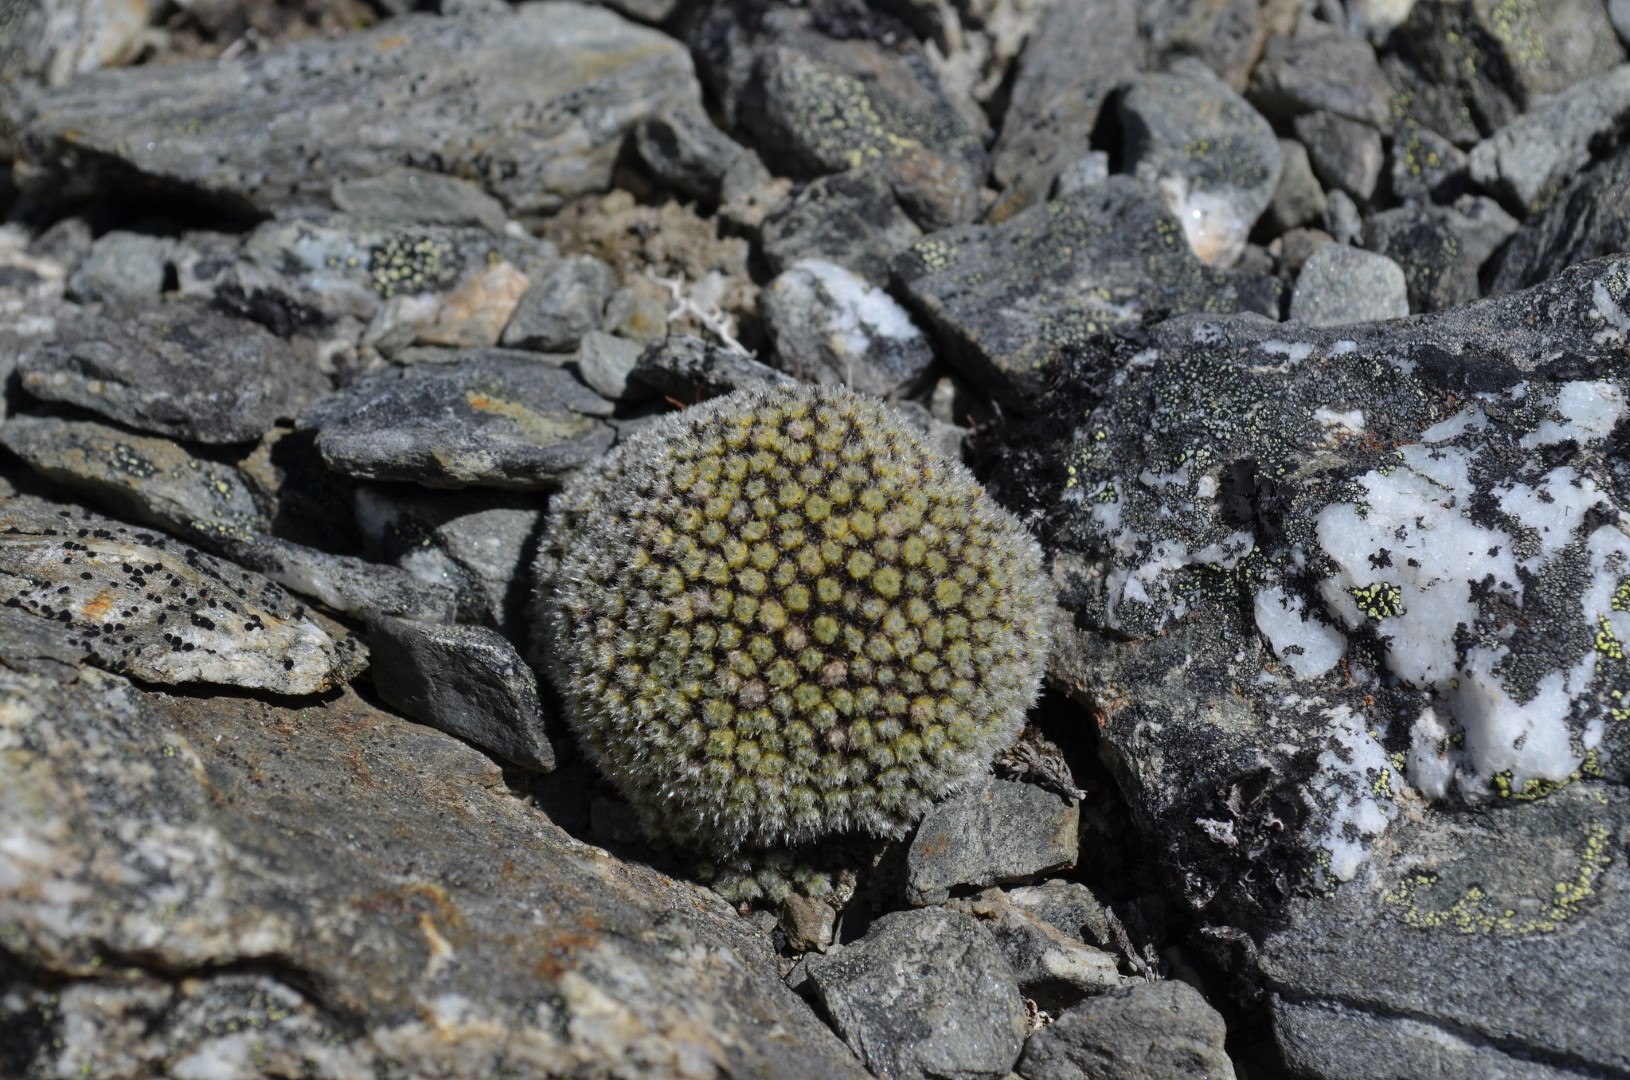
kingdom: Plantae
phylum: Tracheophyta
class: Magnoliopsida
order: Lamiales
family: Plantaginaceae
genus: Veronica
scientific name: Veronica thomsonii
